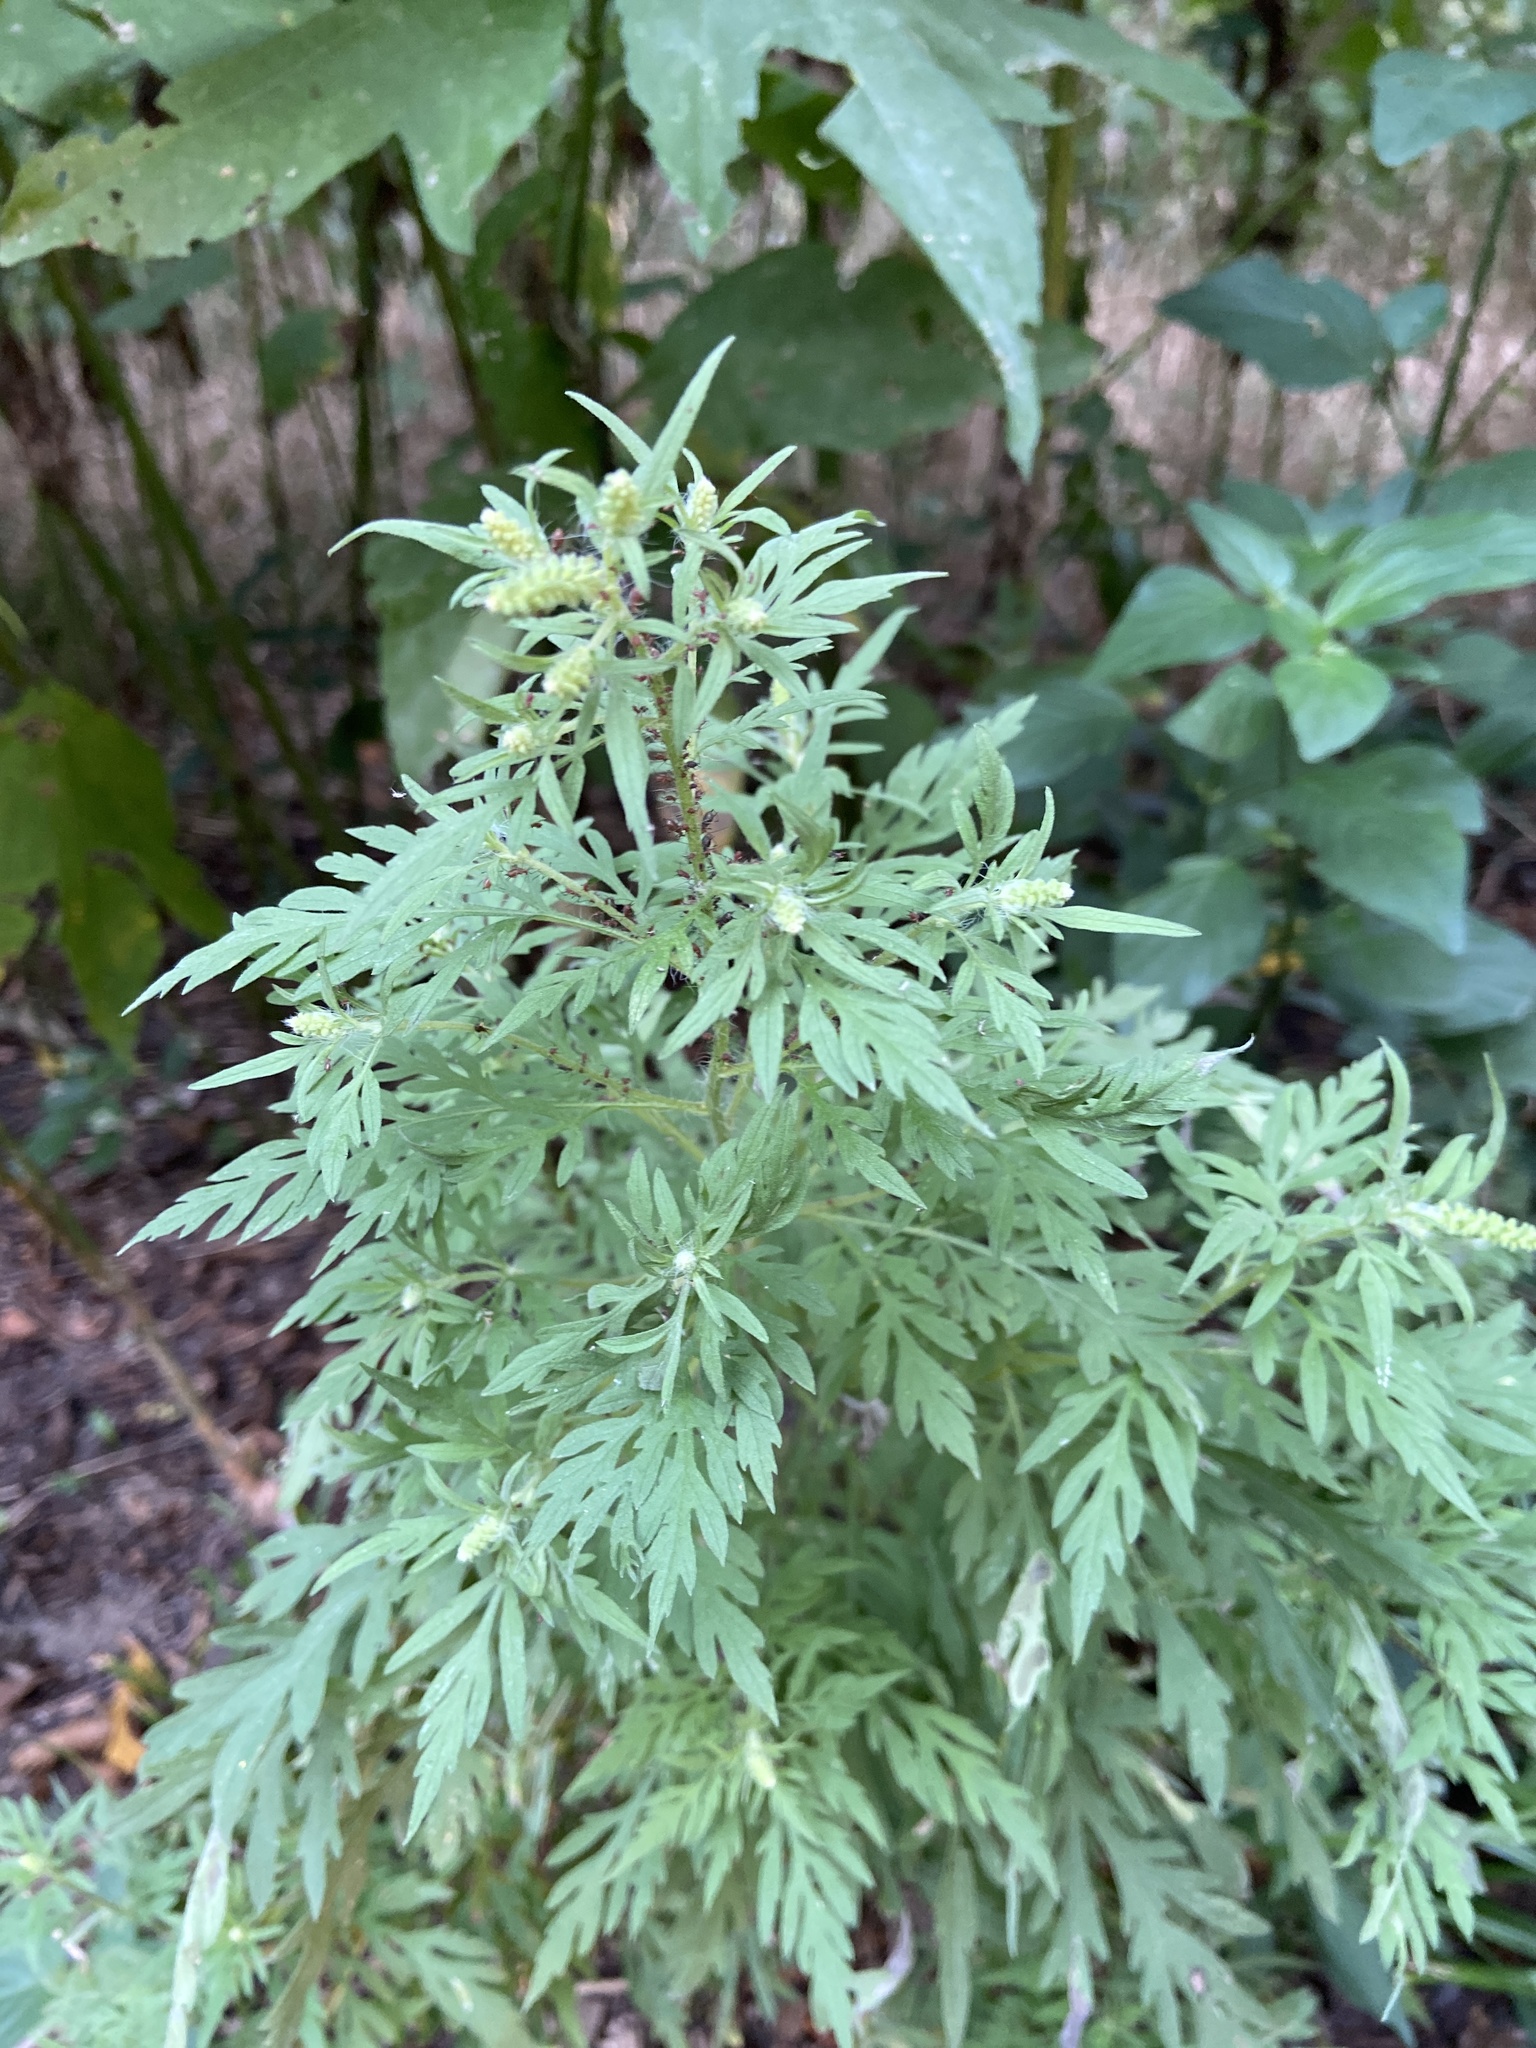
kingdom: Plantae
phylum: Tracheophyta
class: Magnoliopsida
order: Asterales
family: Asteraceae
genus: Ambrosia
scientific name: Ambrosia artemisiifolia
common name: Annual ragweed
